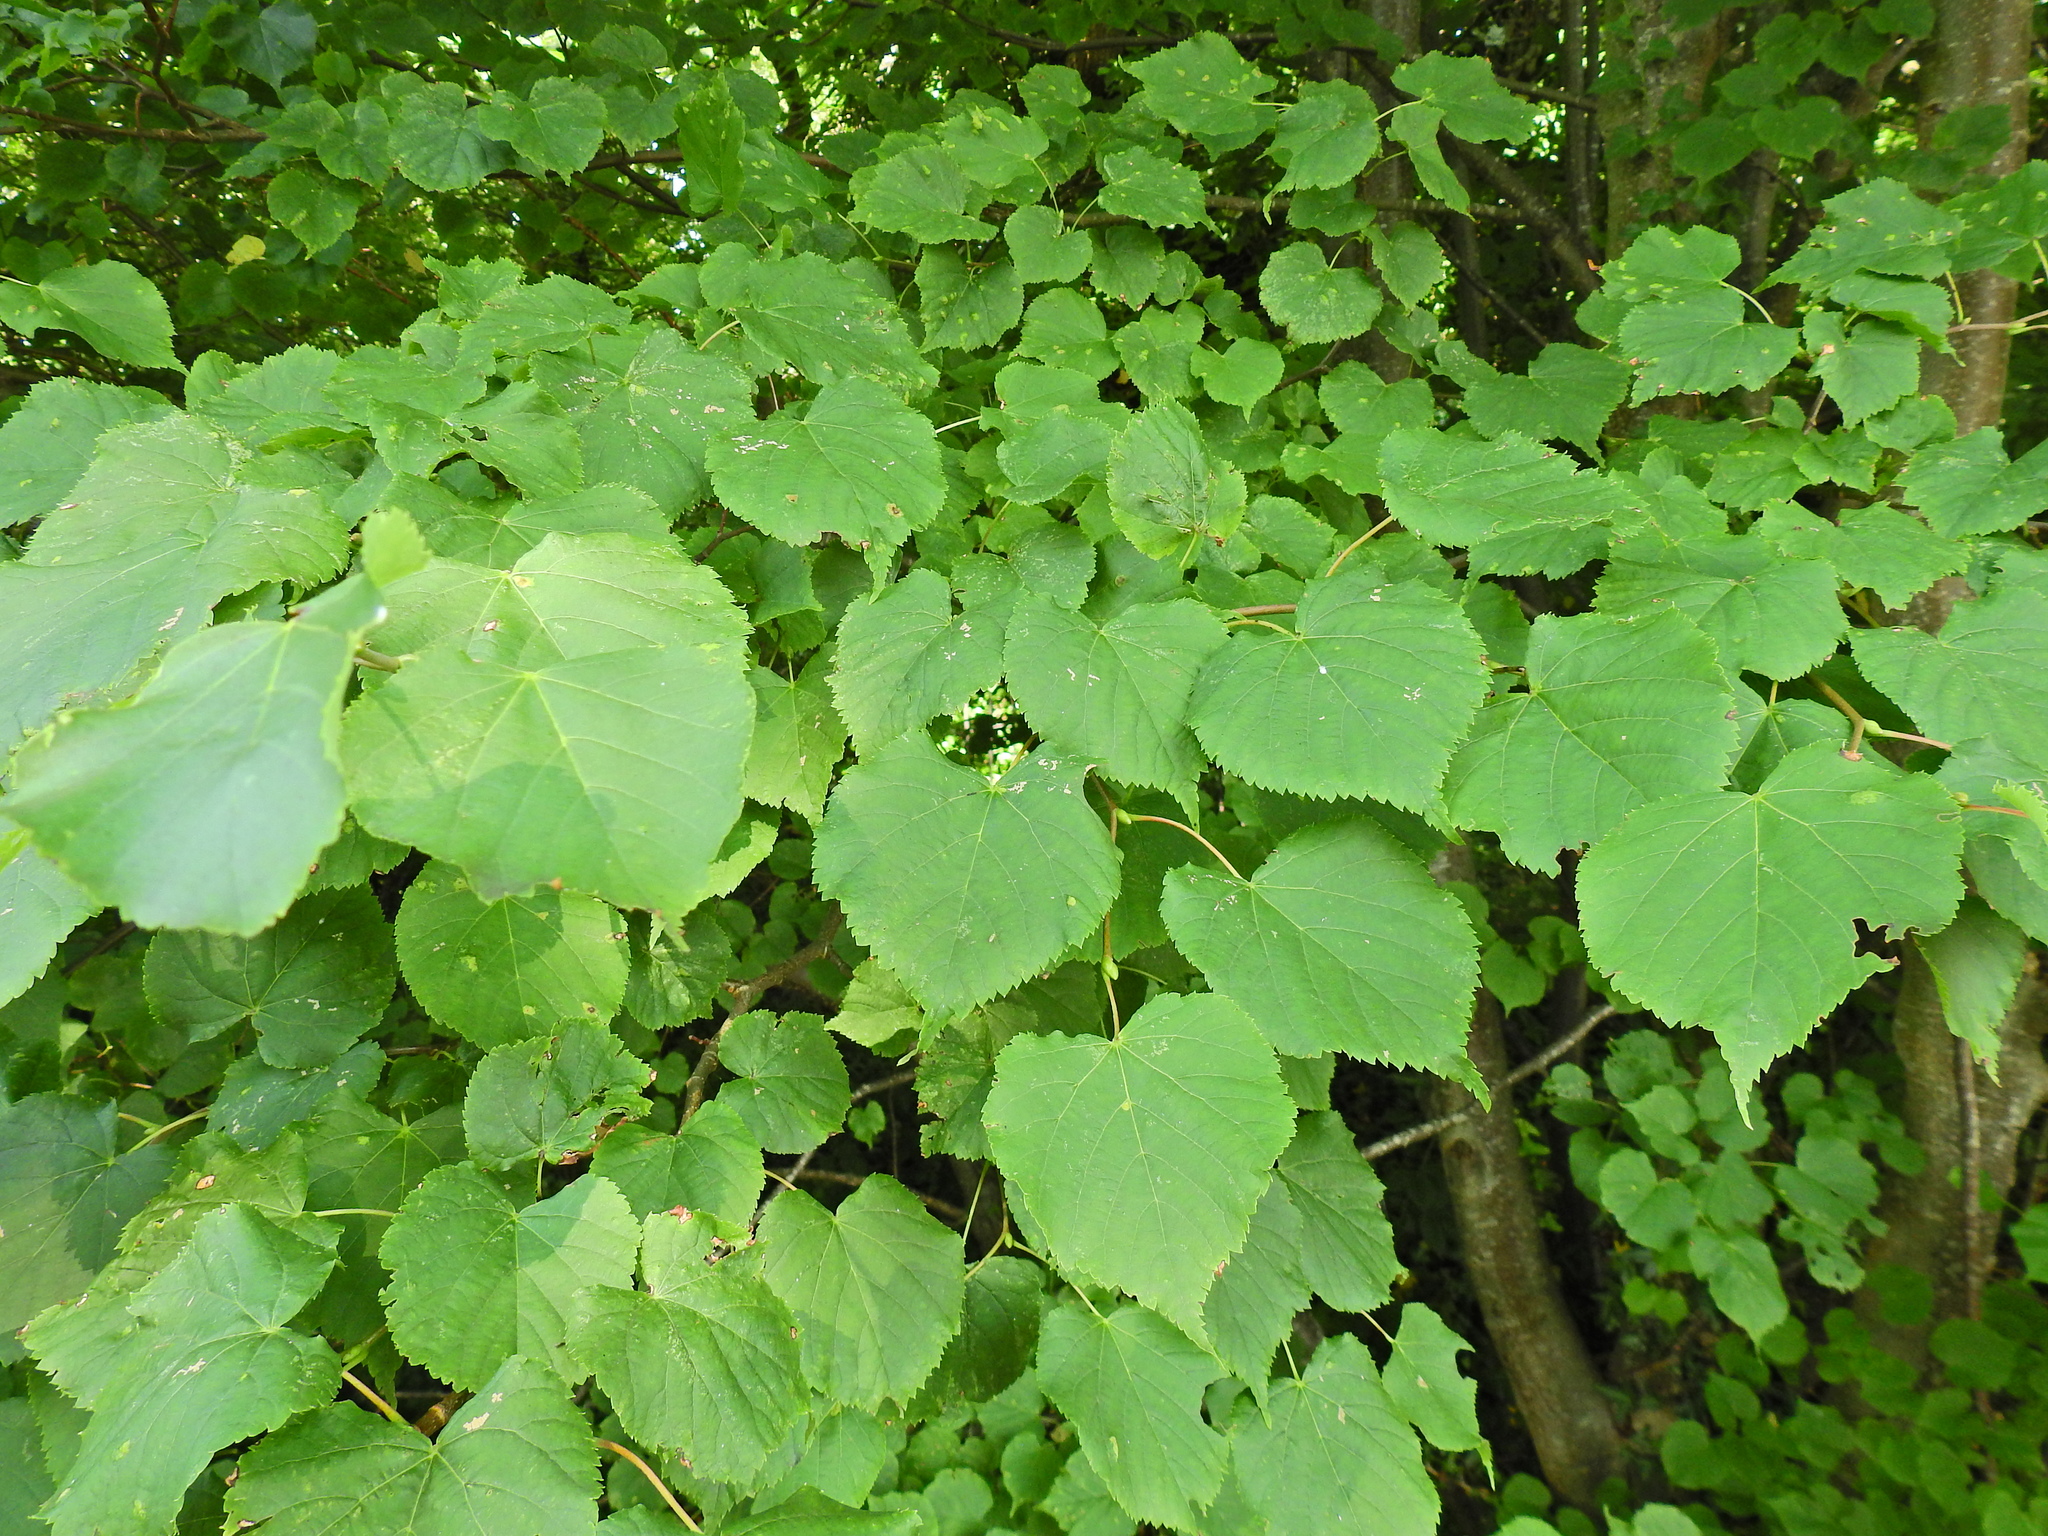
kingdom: Plantae
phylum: Tracheophyta
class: Magnoliopsida
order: Malvales
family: Malvaceae
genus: Tilia
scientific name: Tilia europaea
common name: European linden
